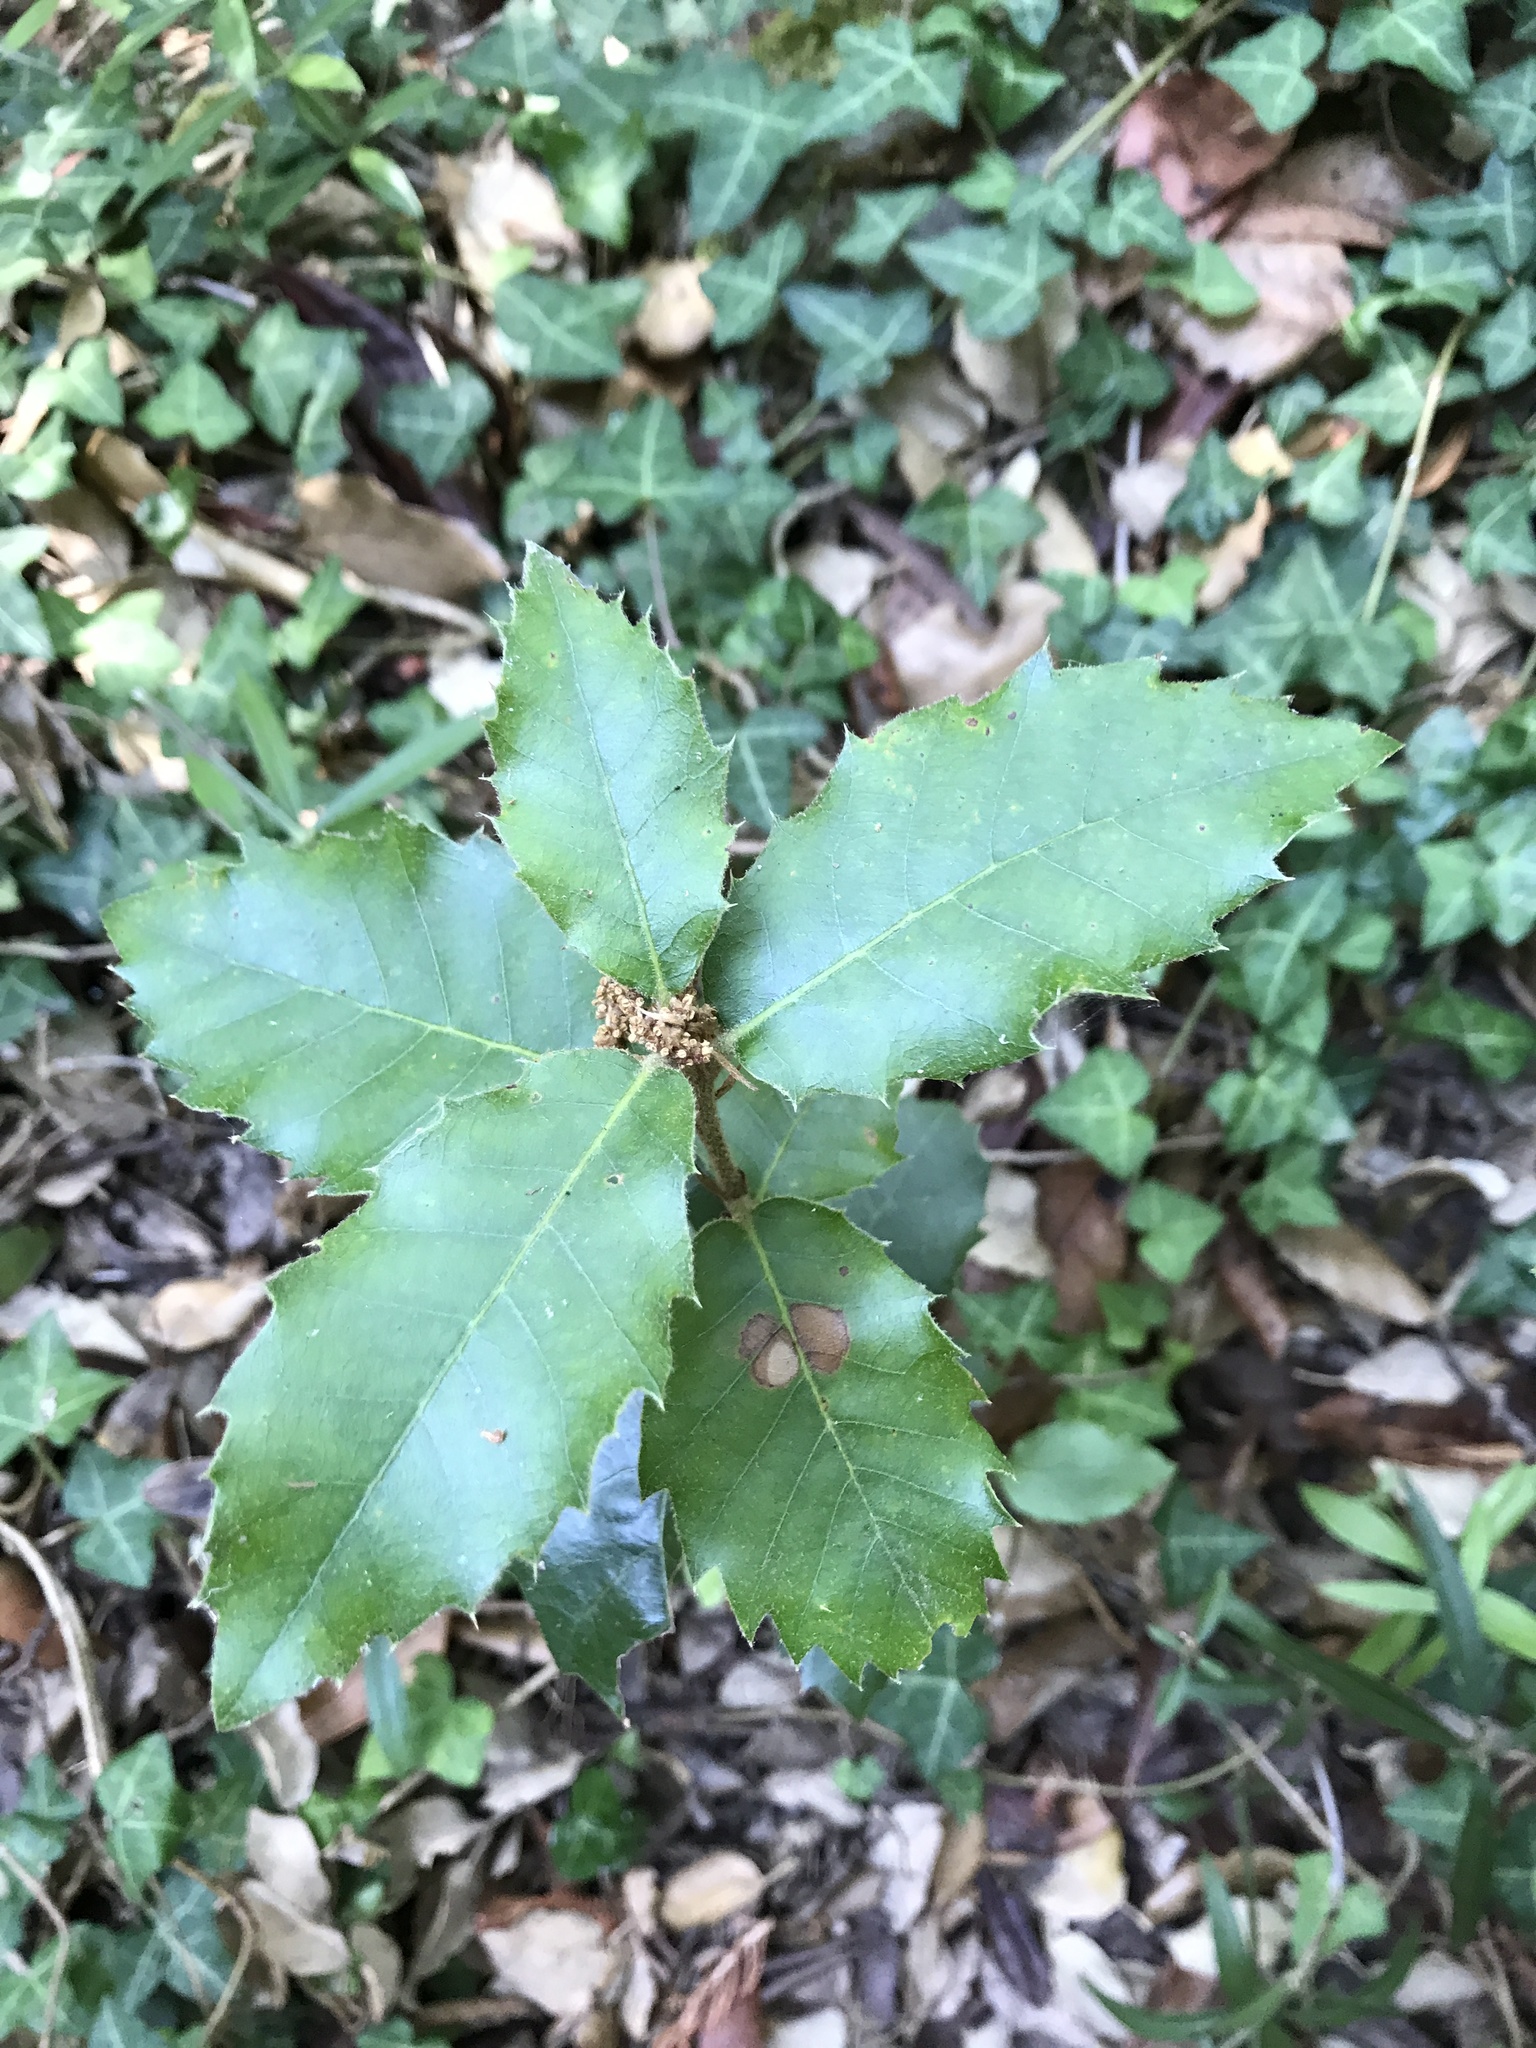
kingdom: Plantae
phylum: Tracheophyta
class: Magnoliopsida
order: Fagales
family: Fagaceae
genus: Quercus
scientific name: Quercus ilex
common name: Evergreen oak
